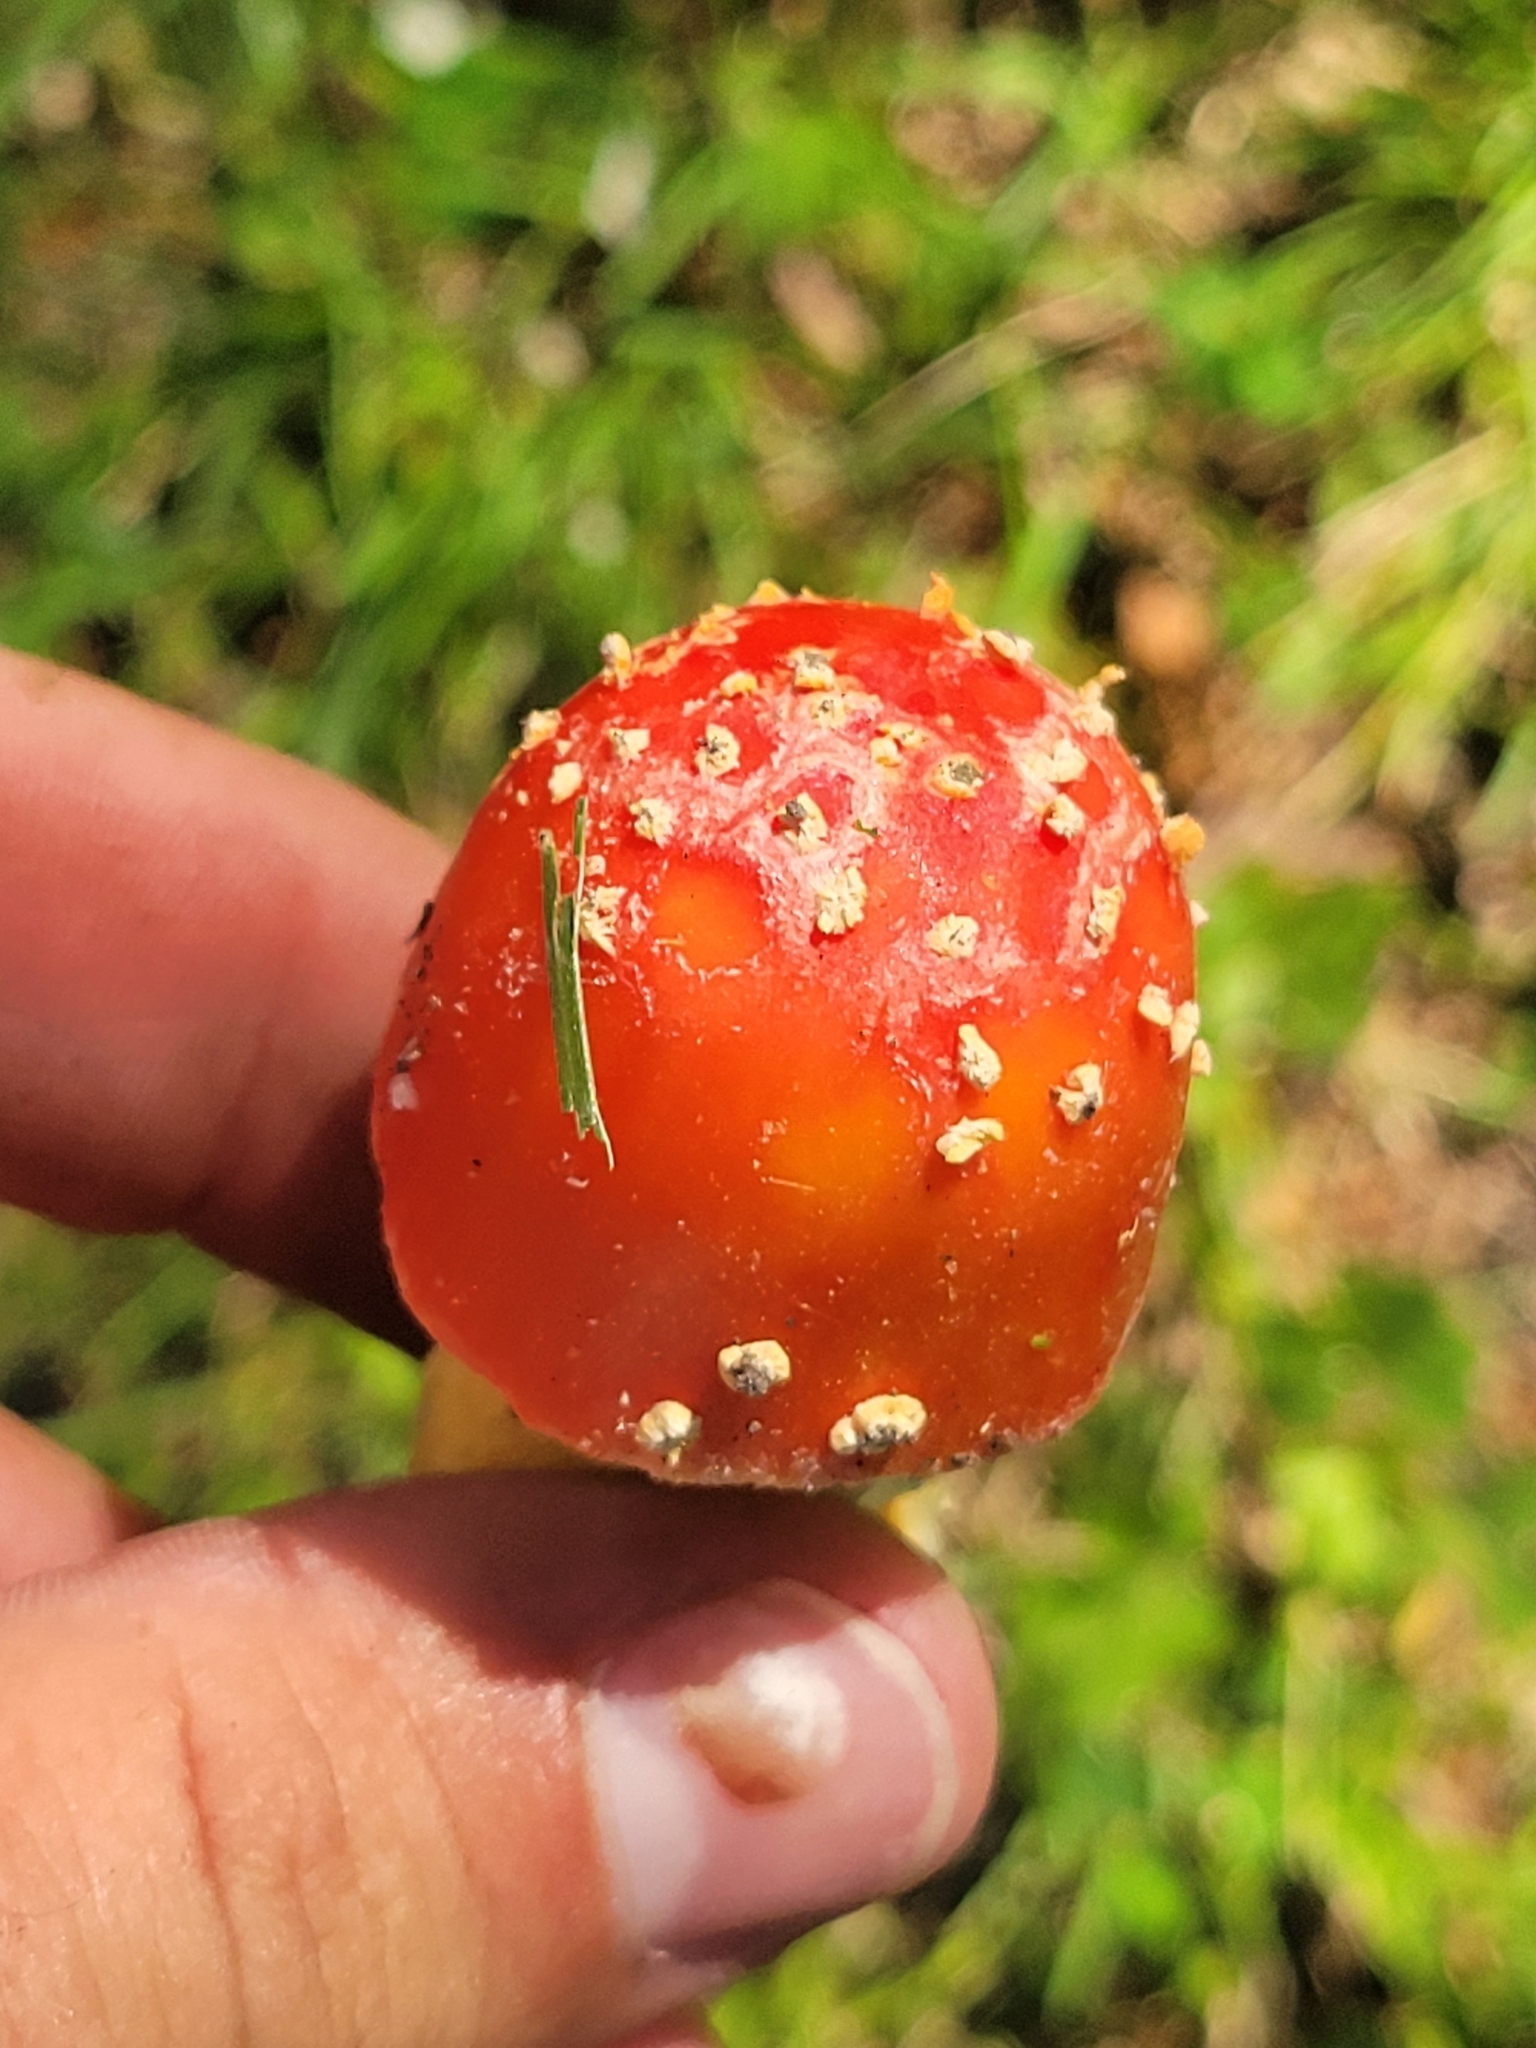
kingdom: Fungi
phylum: Basidiomycota
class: Agaricomycetes
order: Agaricales
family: Amanitaceae
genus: Amanita
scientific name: Amanita parcivolvata
